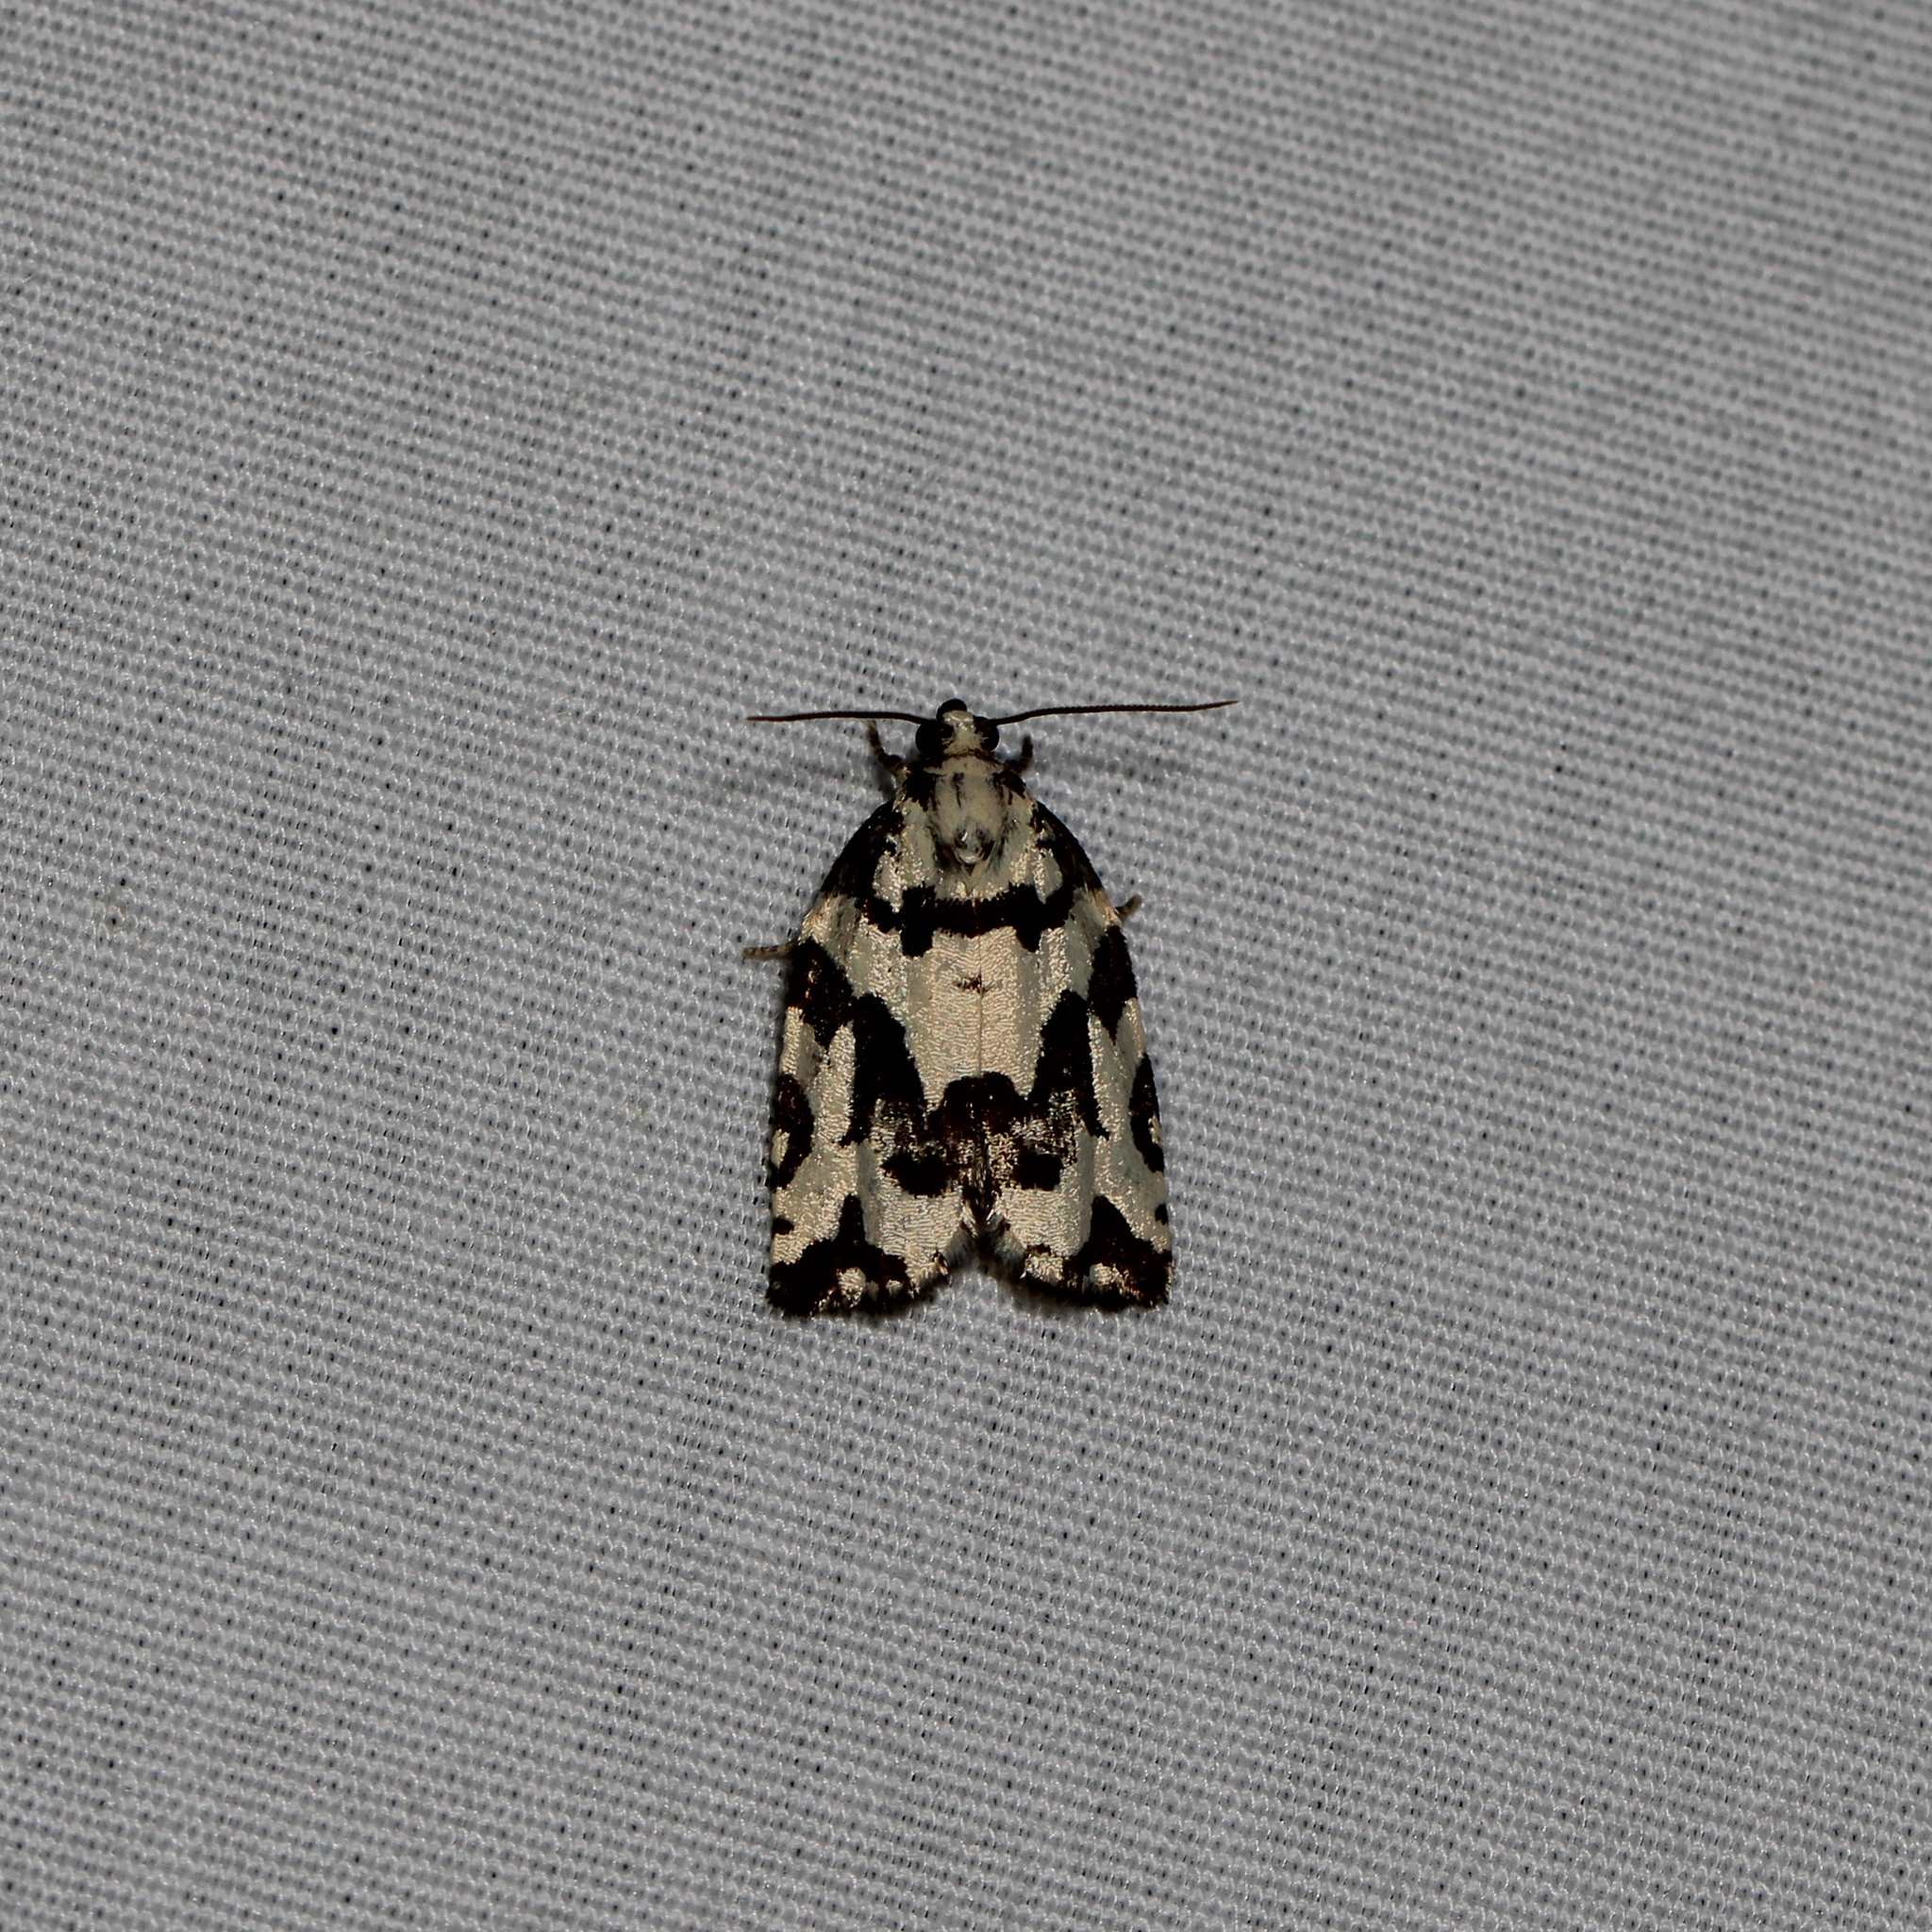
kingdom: Animalia
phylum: Arthropoda
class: Insecta
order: Lepidoptera
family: Tortricidae
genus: Archips
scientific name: Archips dissitana
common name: Boldly-marked archips moth
